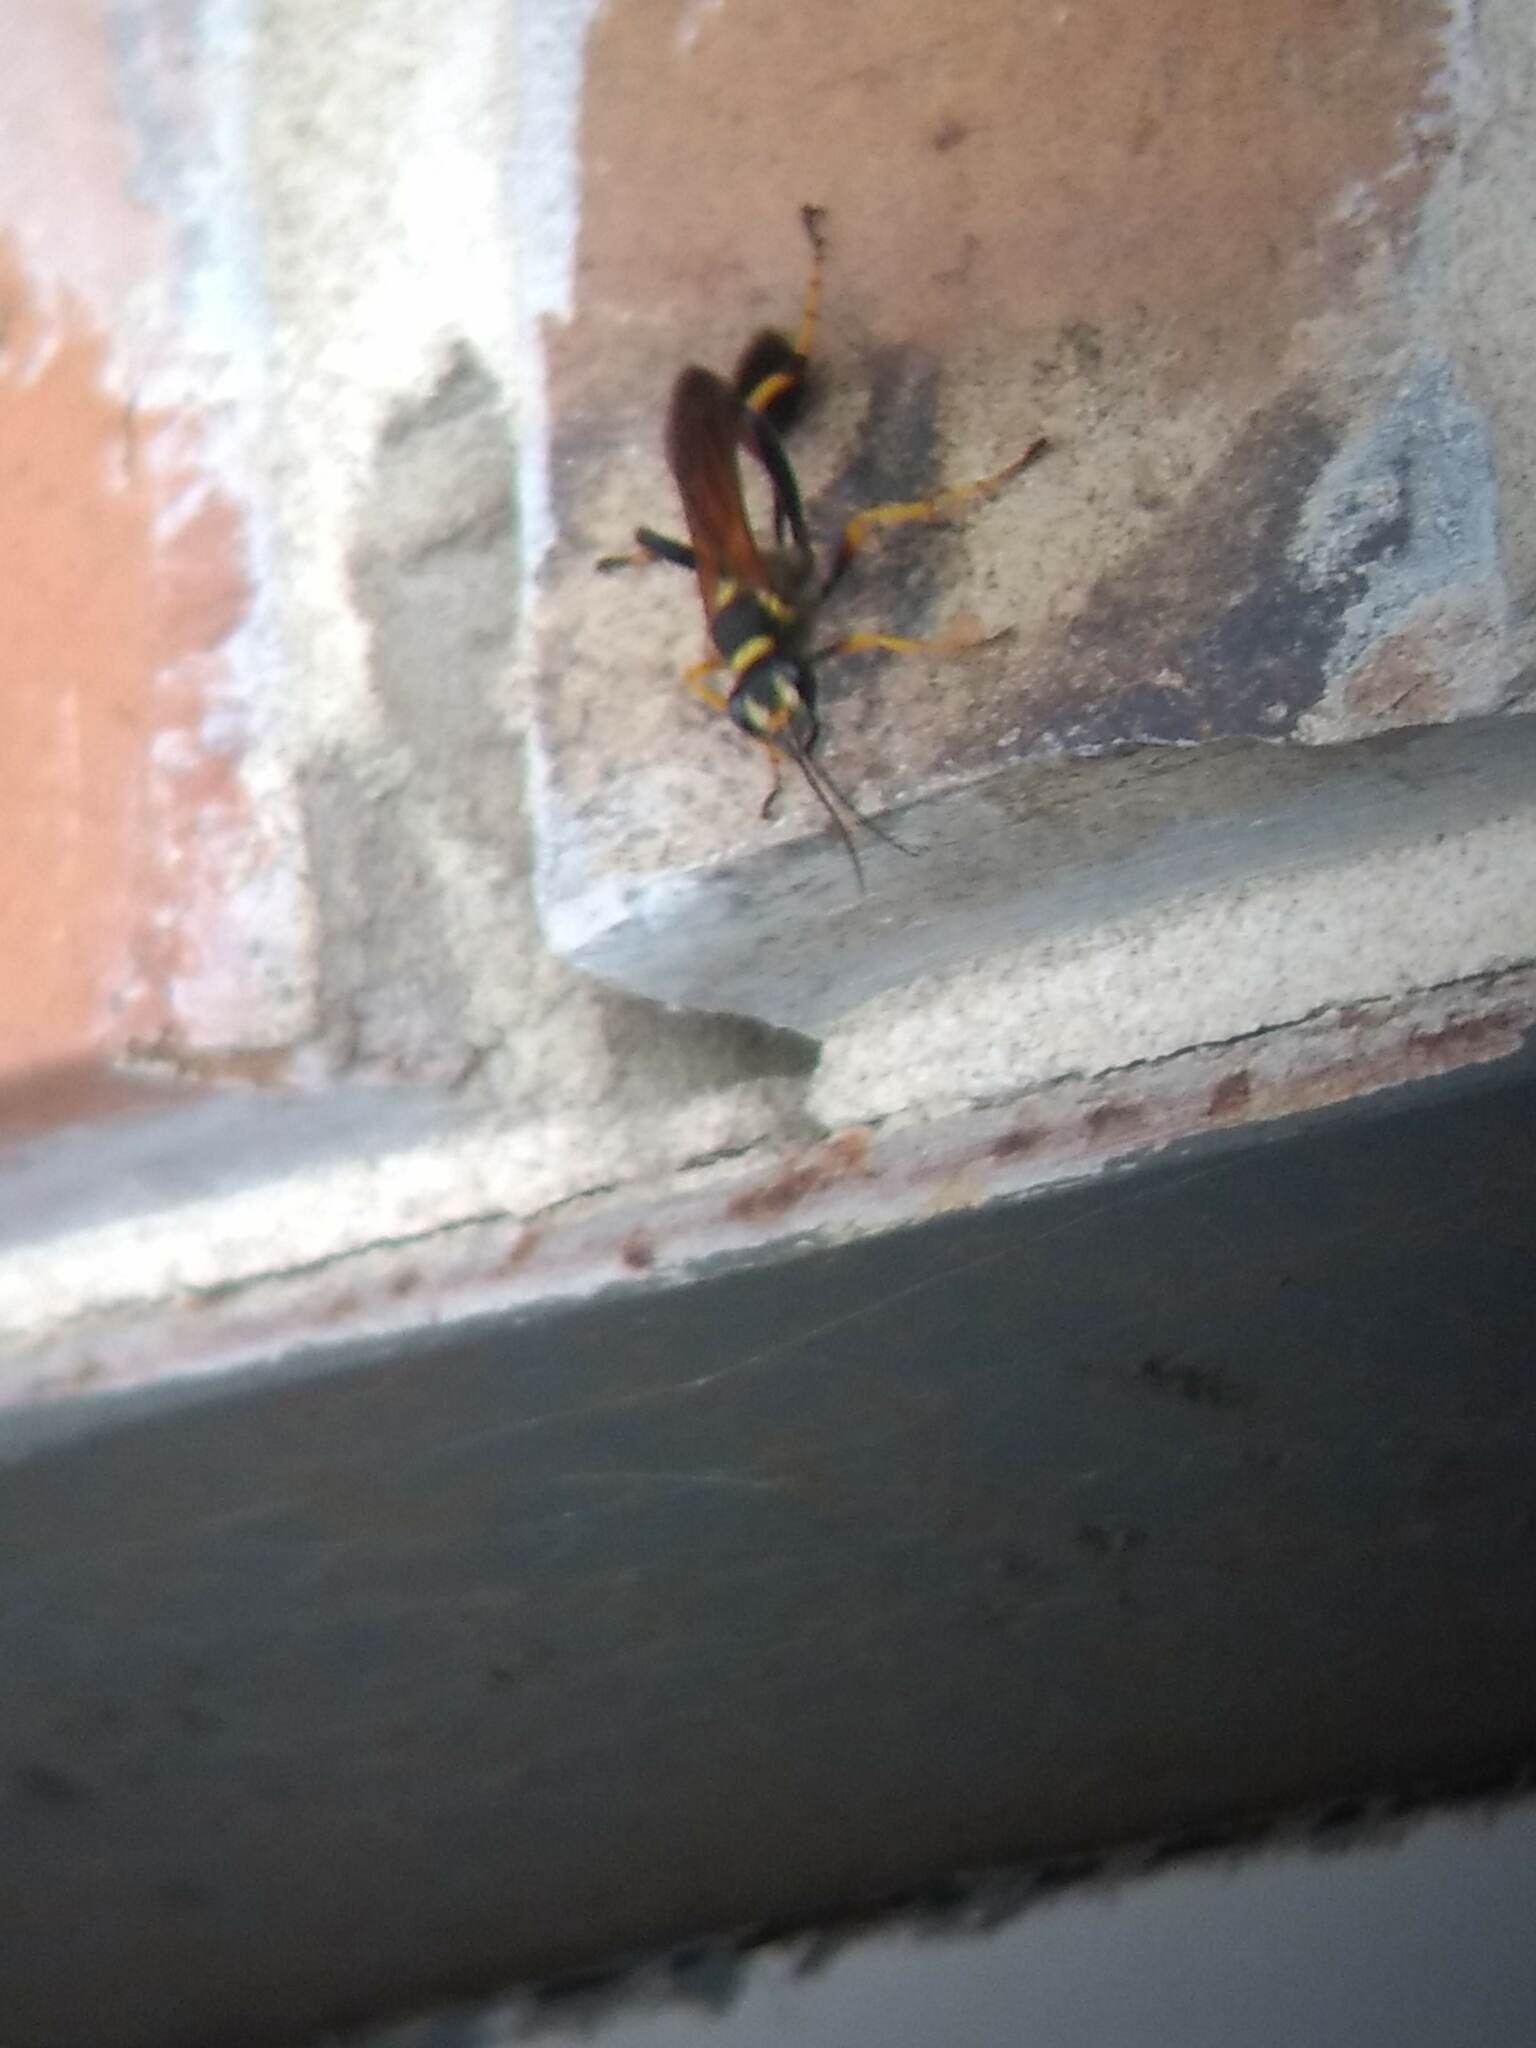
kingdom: Animalia
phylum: Arthropoda
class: Insecta
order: Hymenoptera
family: Sphecidae
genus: Sceliphron
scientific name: Sceliphron caementarium
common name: Mud dauber
